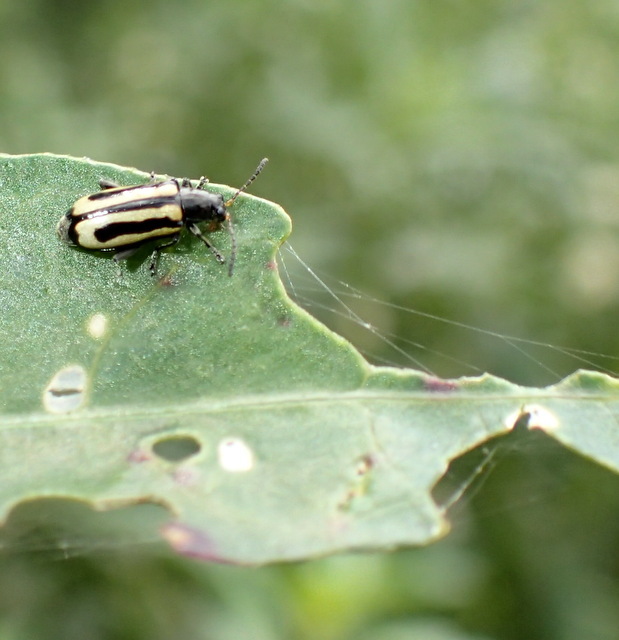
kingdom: Animalia
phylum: Arthropoda
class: Insecta
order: Coleoptera
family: Chrysomelidae
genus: Agasicles
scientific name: Agasicles hygrophila
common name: Alligatorweed flea beetle
